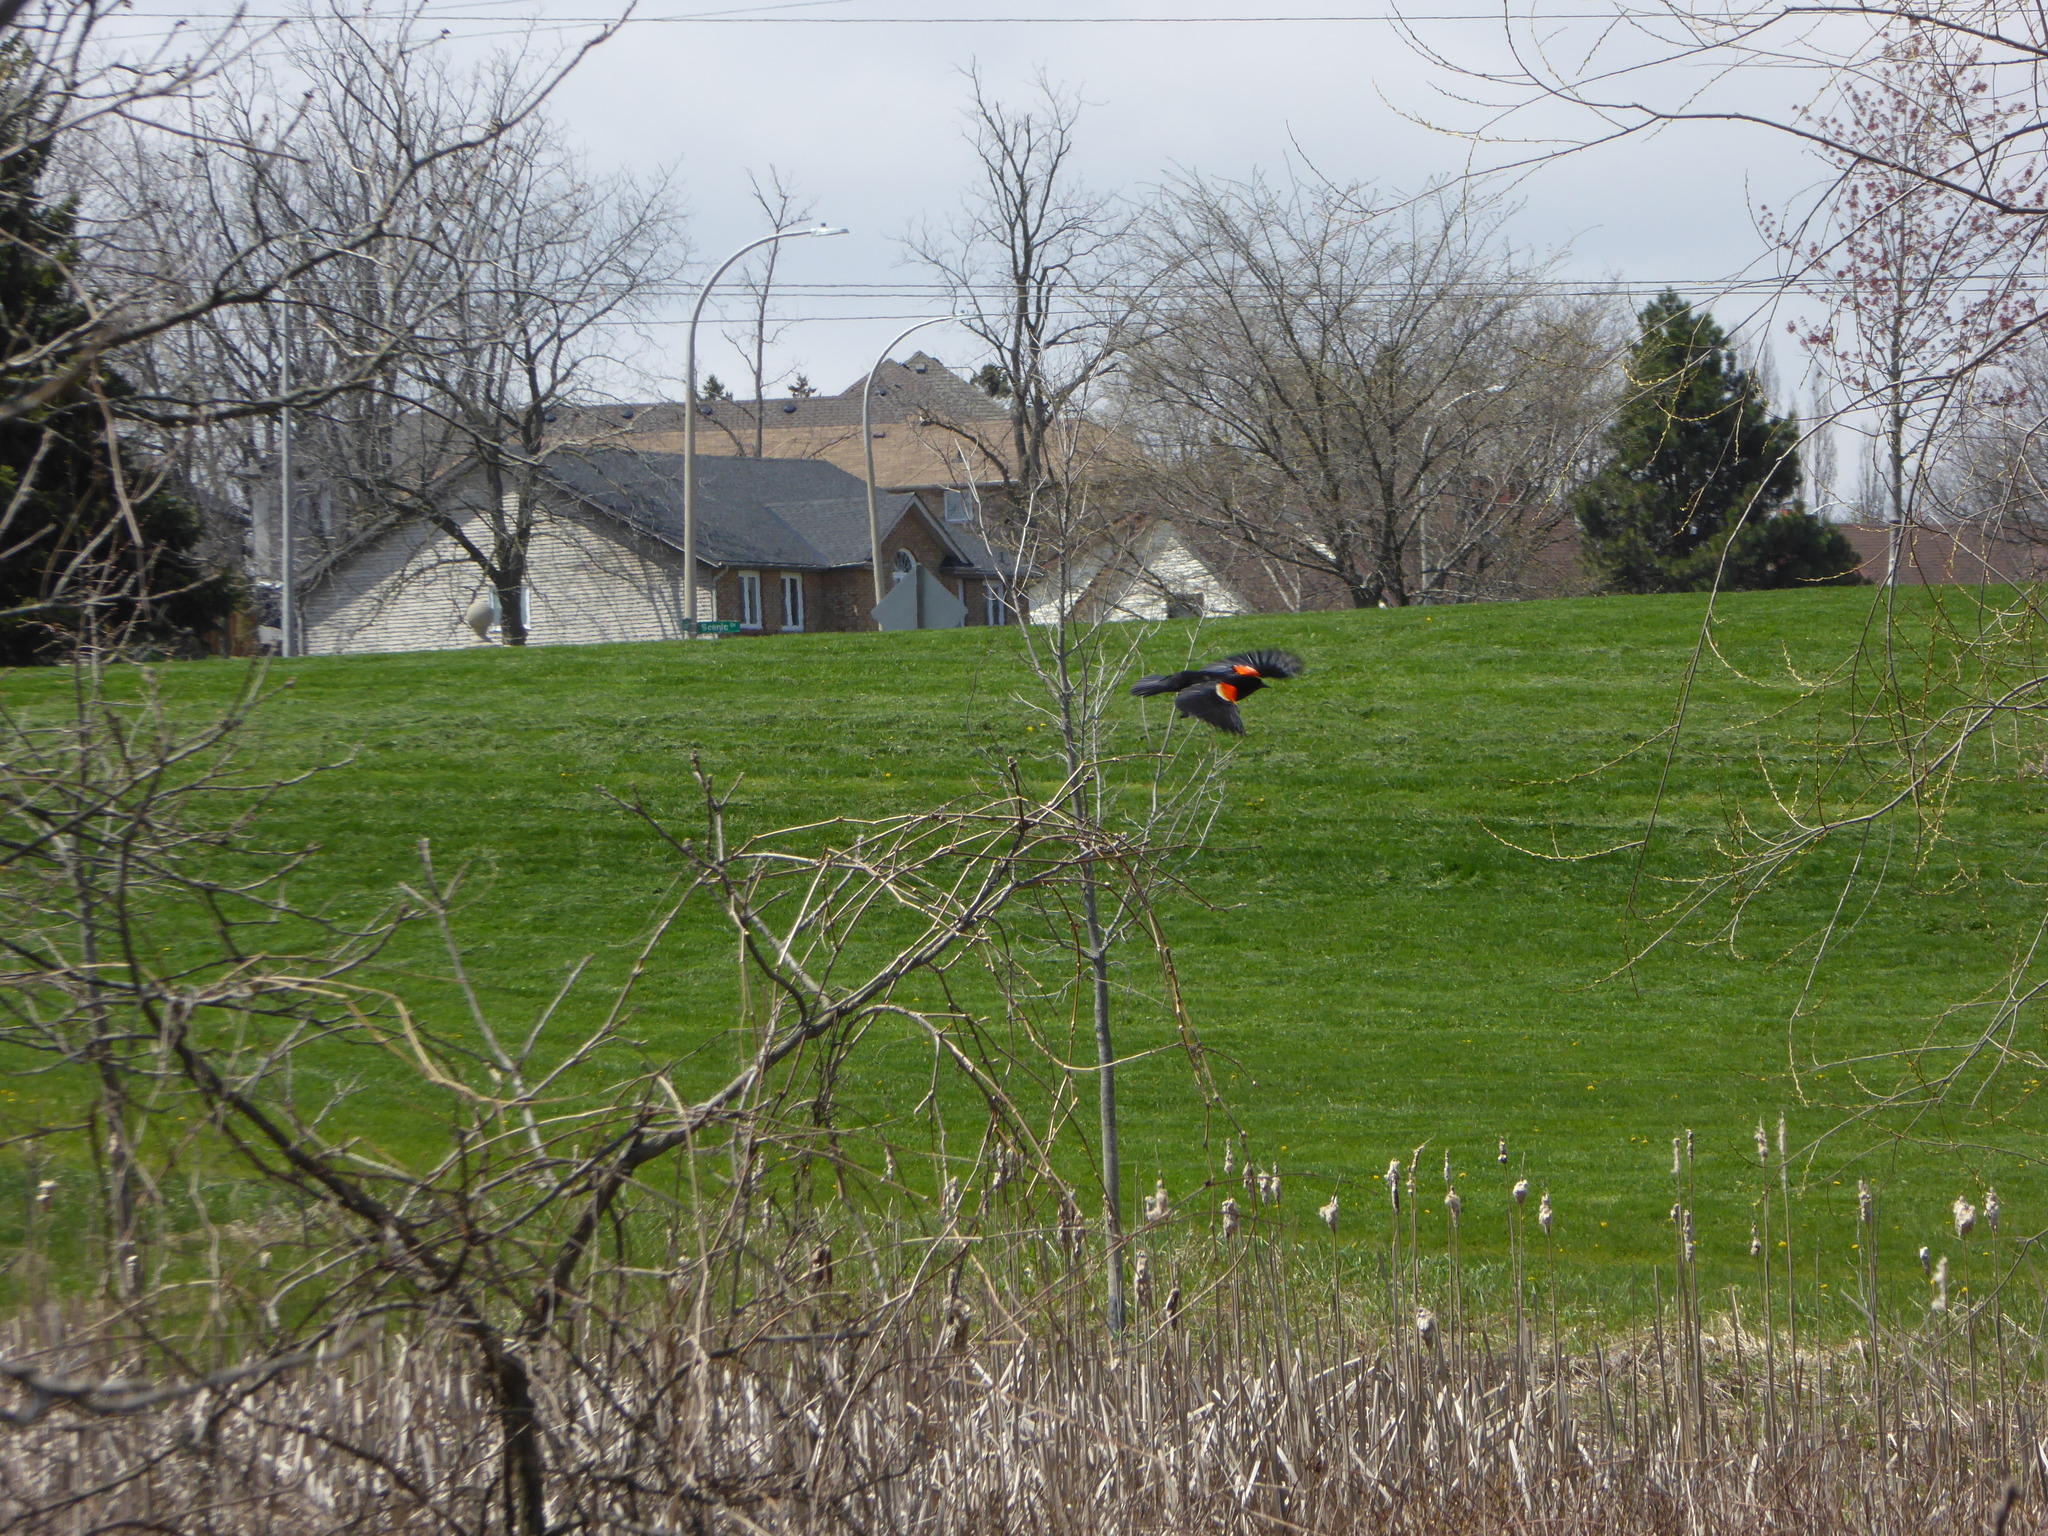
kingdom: Animalia
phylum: Chordata
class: Aves
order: Passeriformes
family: Icteridae
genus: Agelaius
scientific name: Agelaius phoeniceus
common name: Red-winged blackbird
